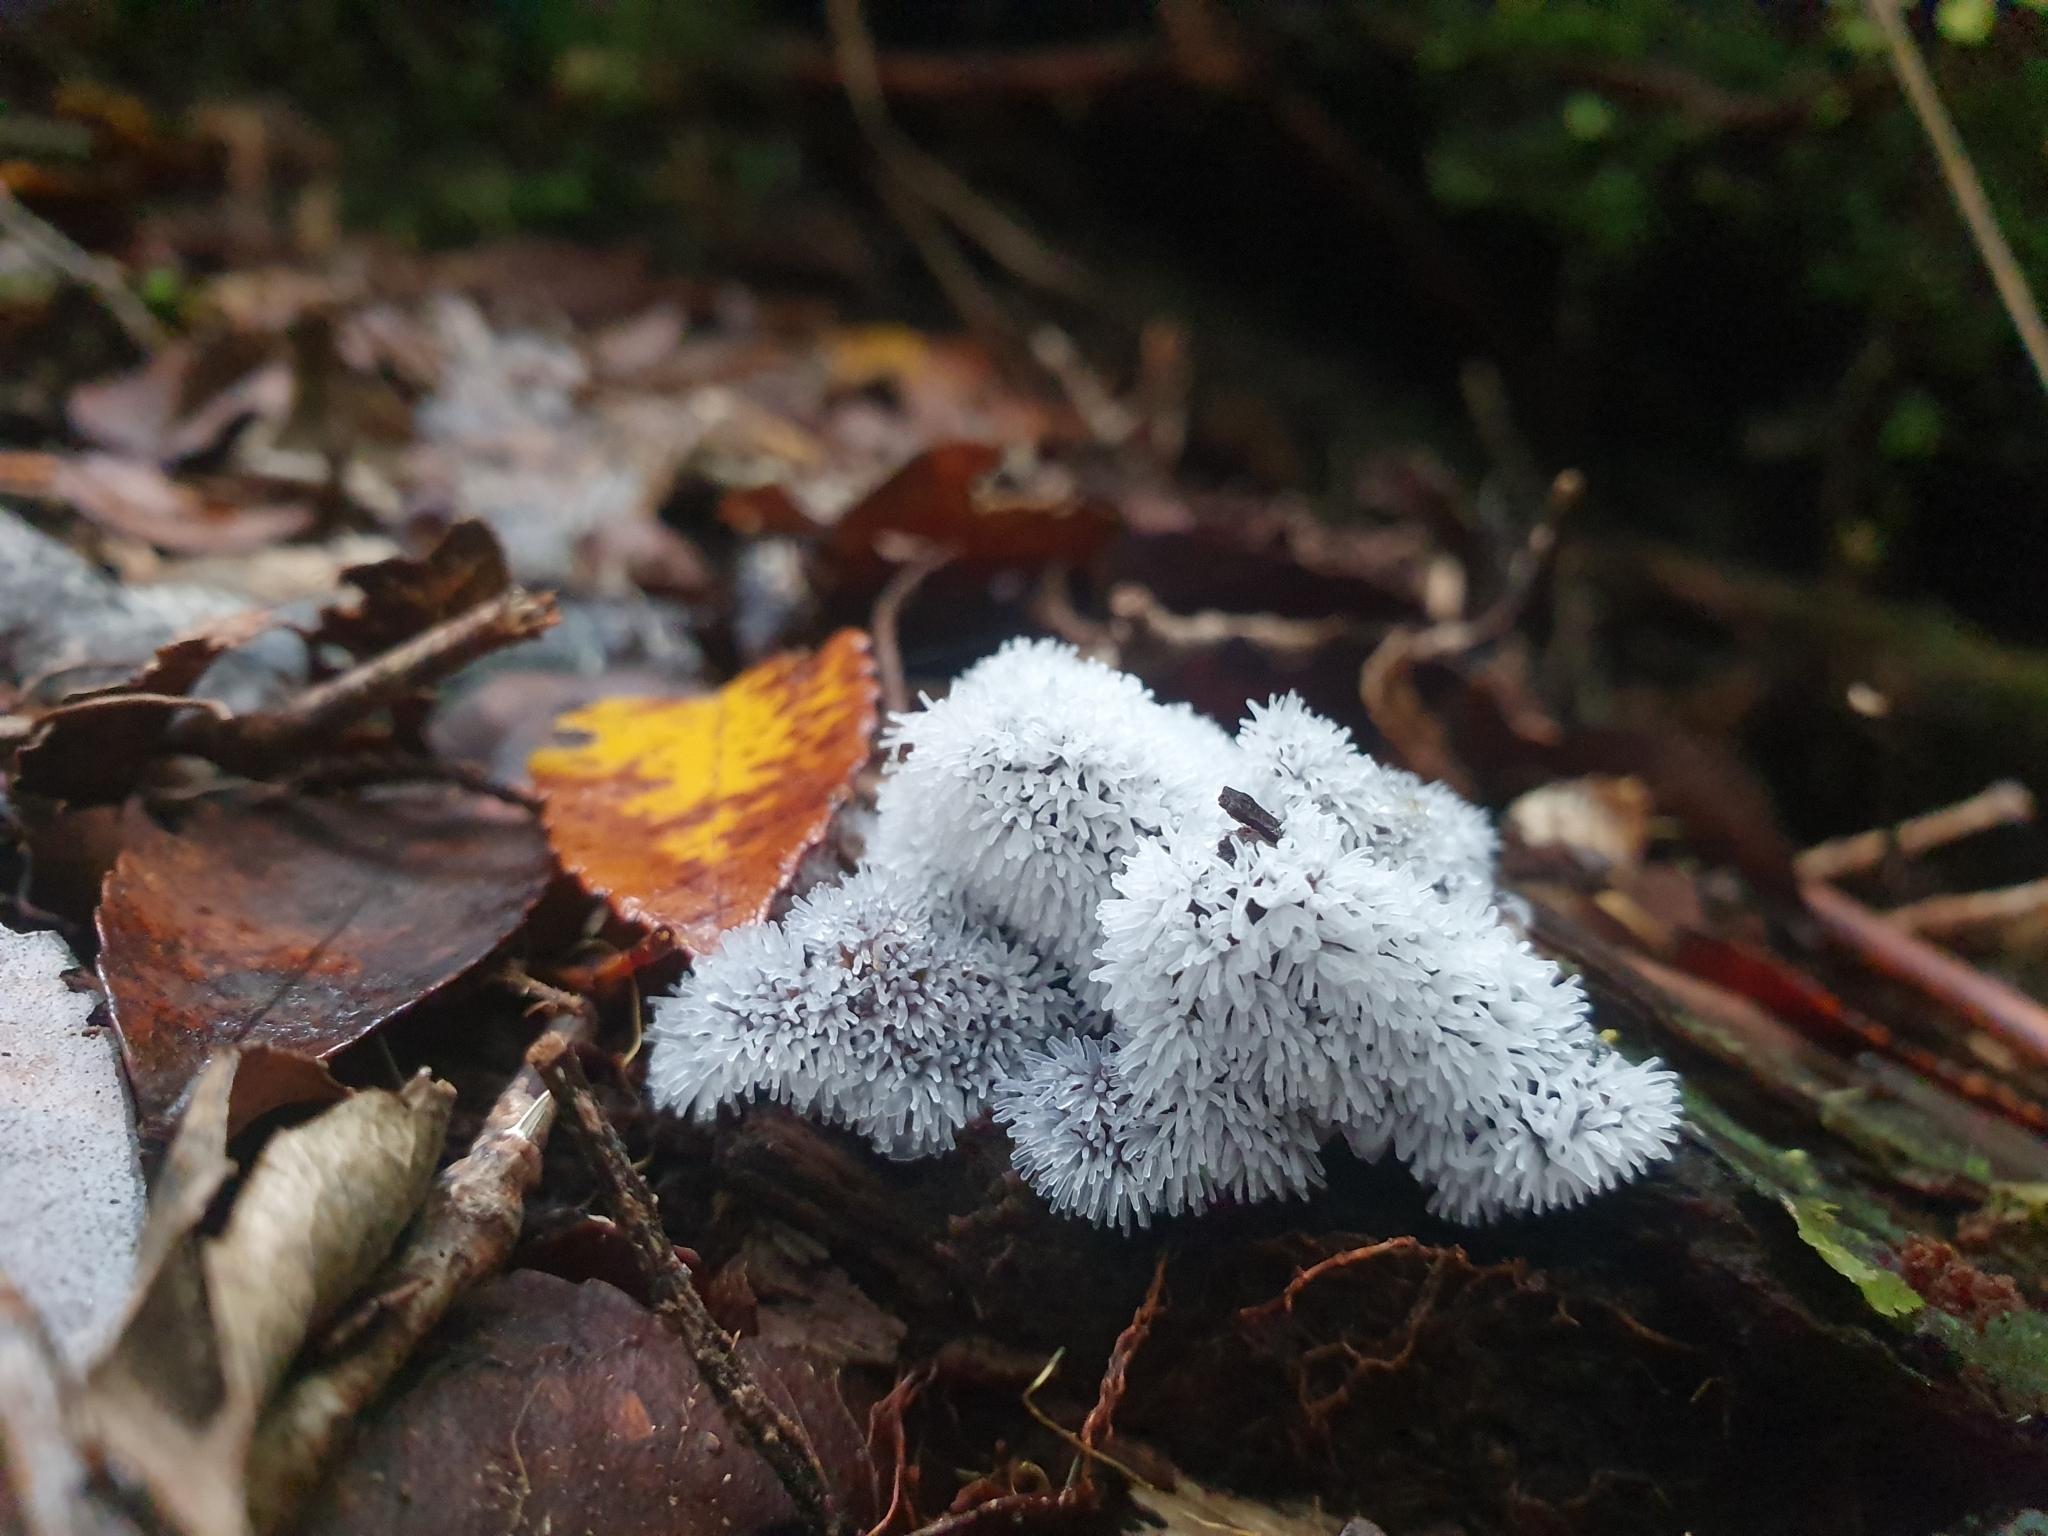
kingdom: Protozoa
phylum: Mycetozoa
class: Protosteliomycetes
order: Ceratiomyxales
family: Ceratiomyxaceae
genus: Ceratiomyxa
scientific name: Ceratiomyxa fruticulosa
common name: Honeycomb coral slime mold
